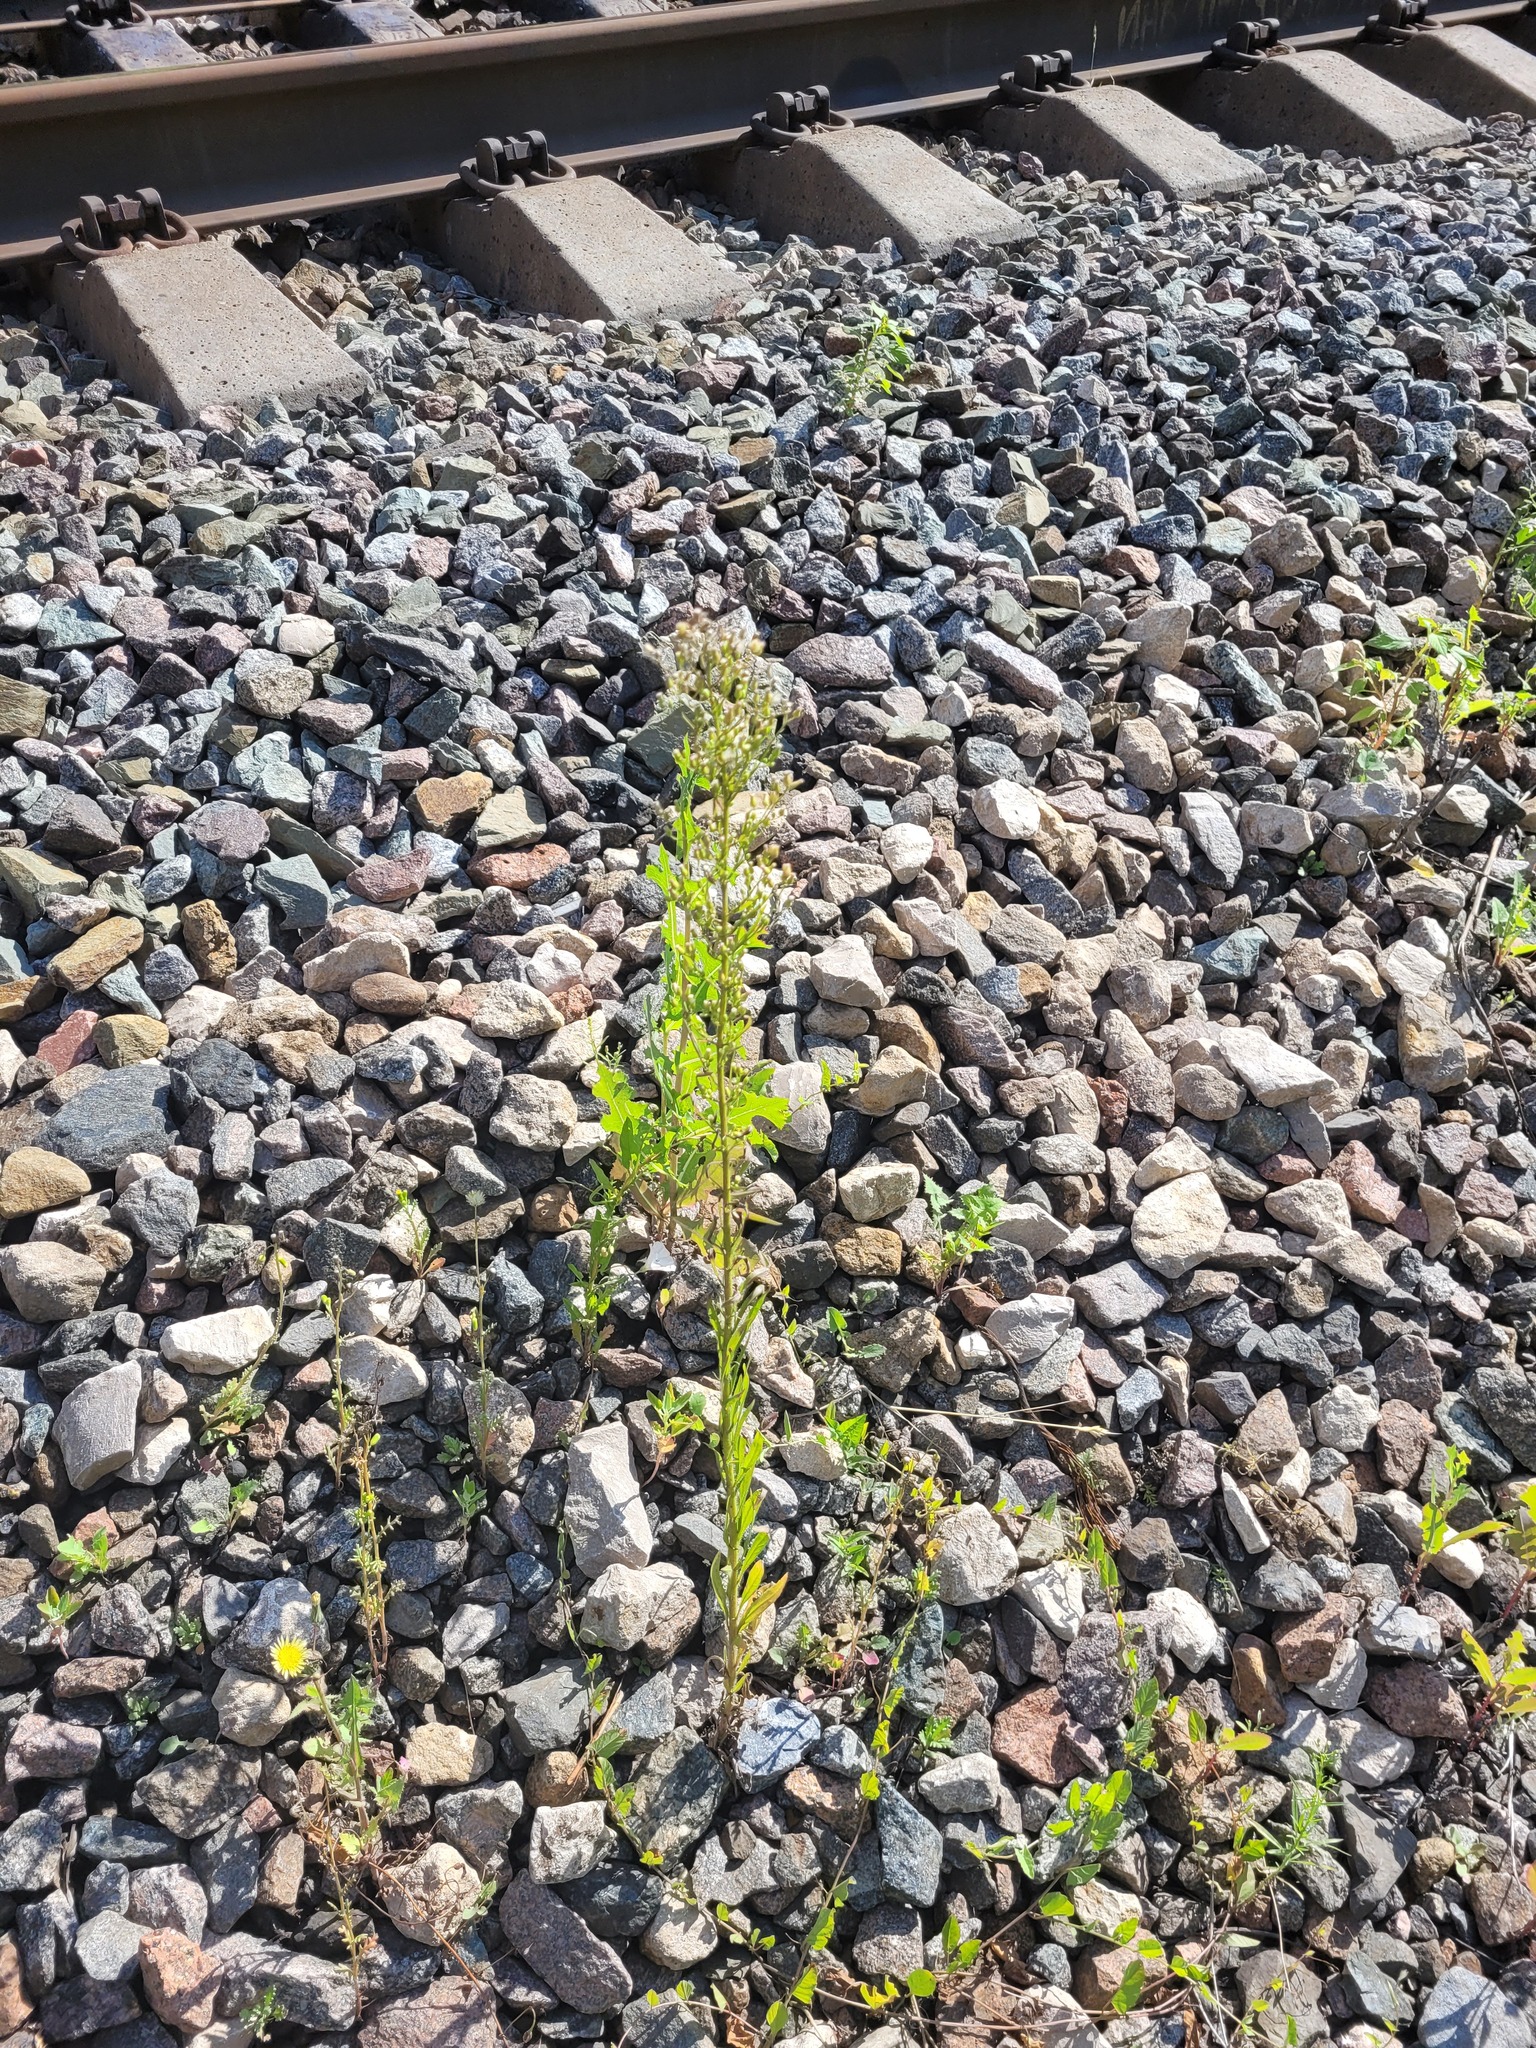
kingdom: Plantae
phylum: Tracheophyta
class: Magnoliopsida
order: Asterales
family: Asteraceae
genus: Erigeron
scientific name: Erigeron canadensis
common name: Canadian fleabane
